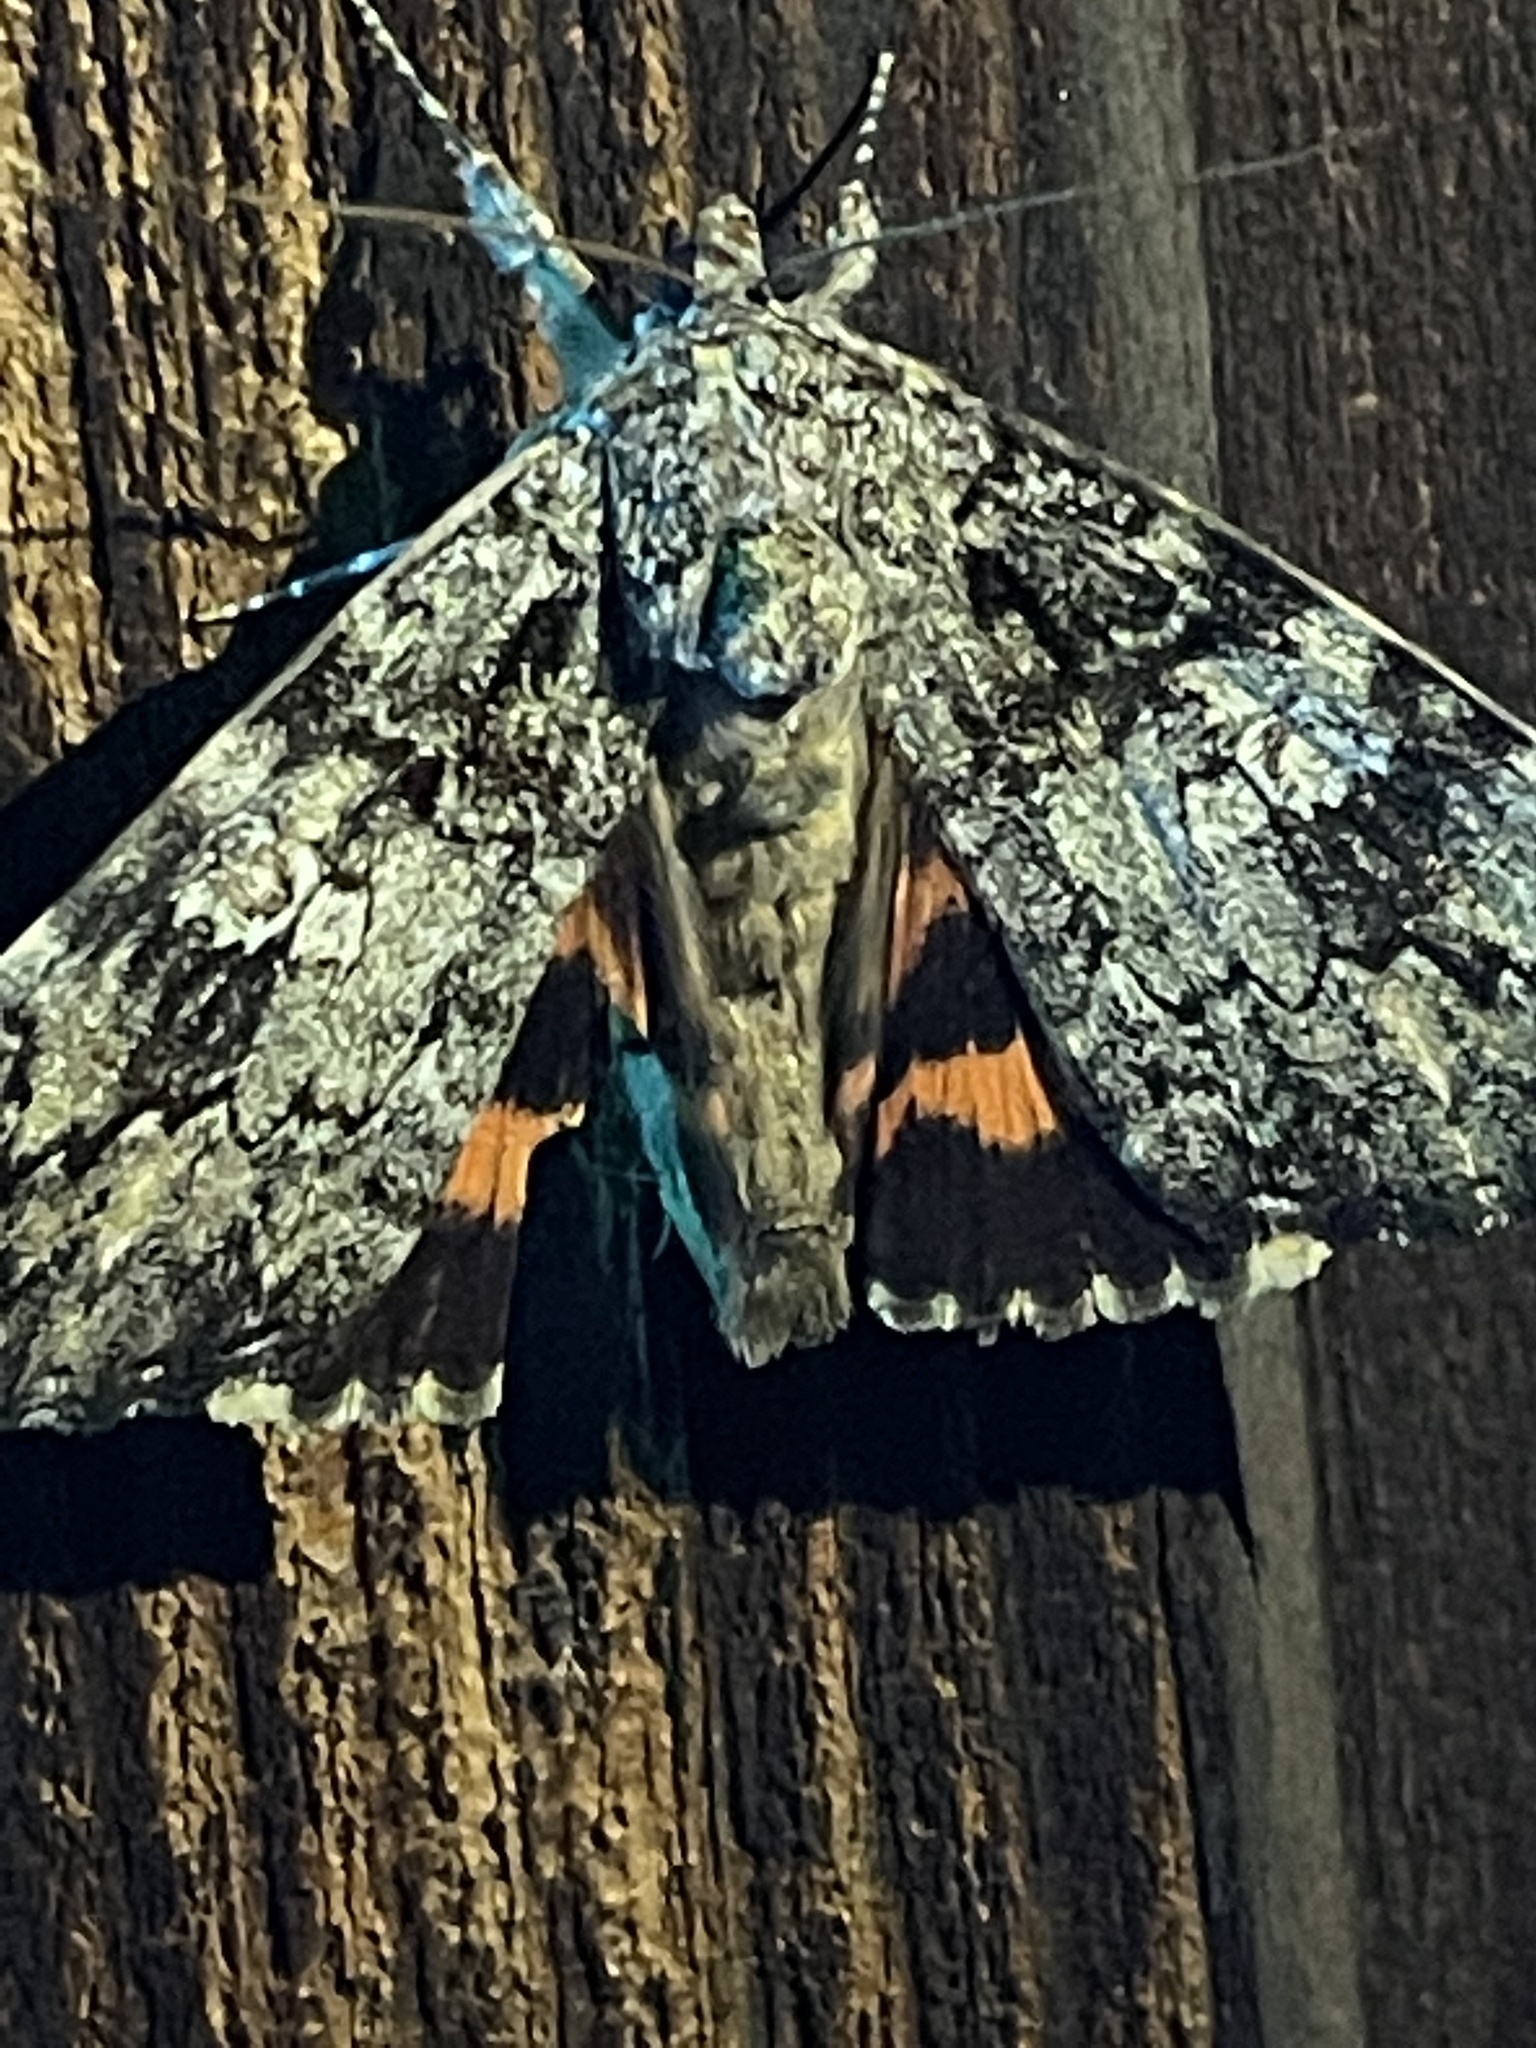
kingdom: Animalia
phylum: Arthropoda
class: Insecta
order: Lepidoptera
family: Erebidae
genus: Catocala
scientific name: Catocala ilia
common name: Ilia underwing
